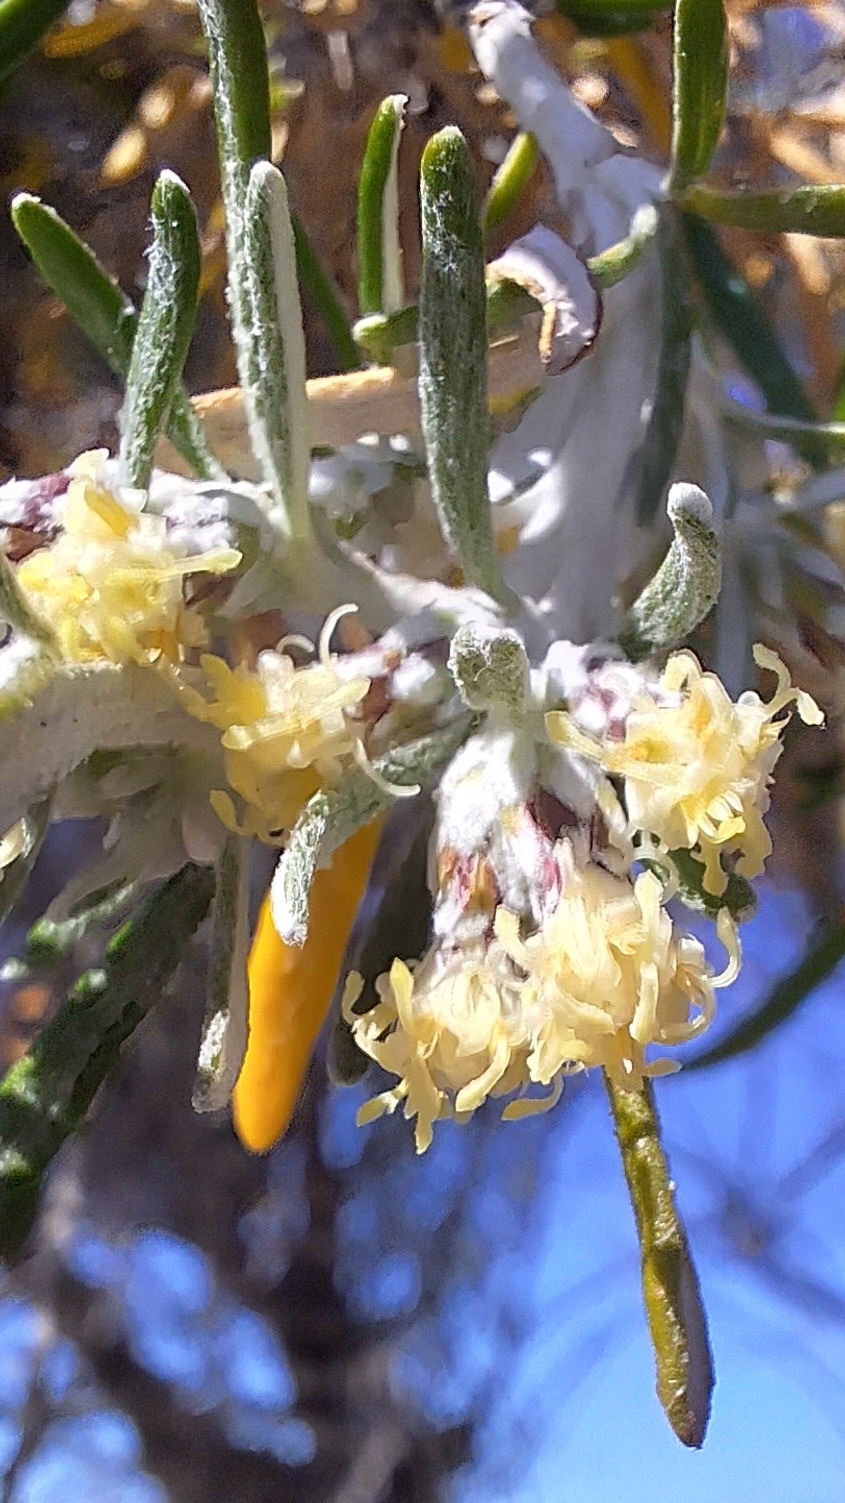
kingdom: Plantae
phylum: Tracheophyta
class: Magnoliopsida
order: Asterales
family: Asteraceae
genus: Olearia
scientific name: Olearia axillaris
